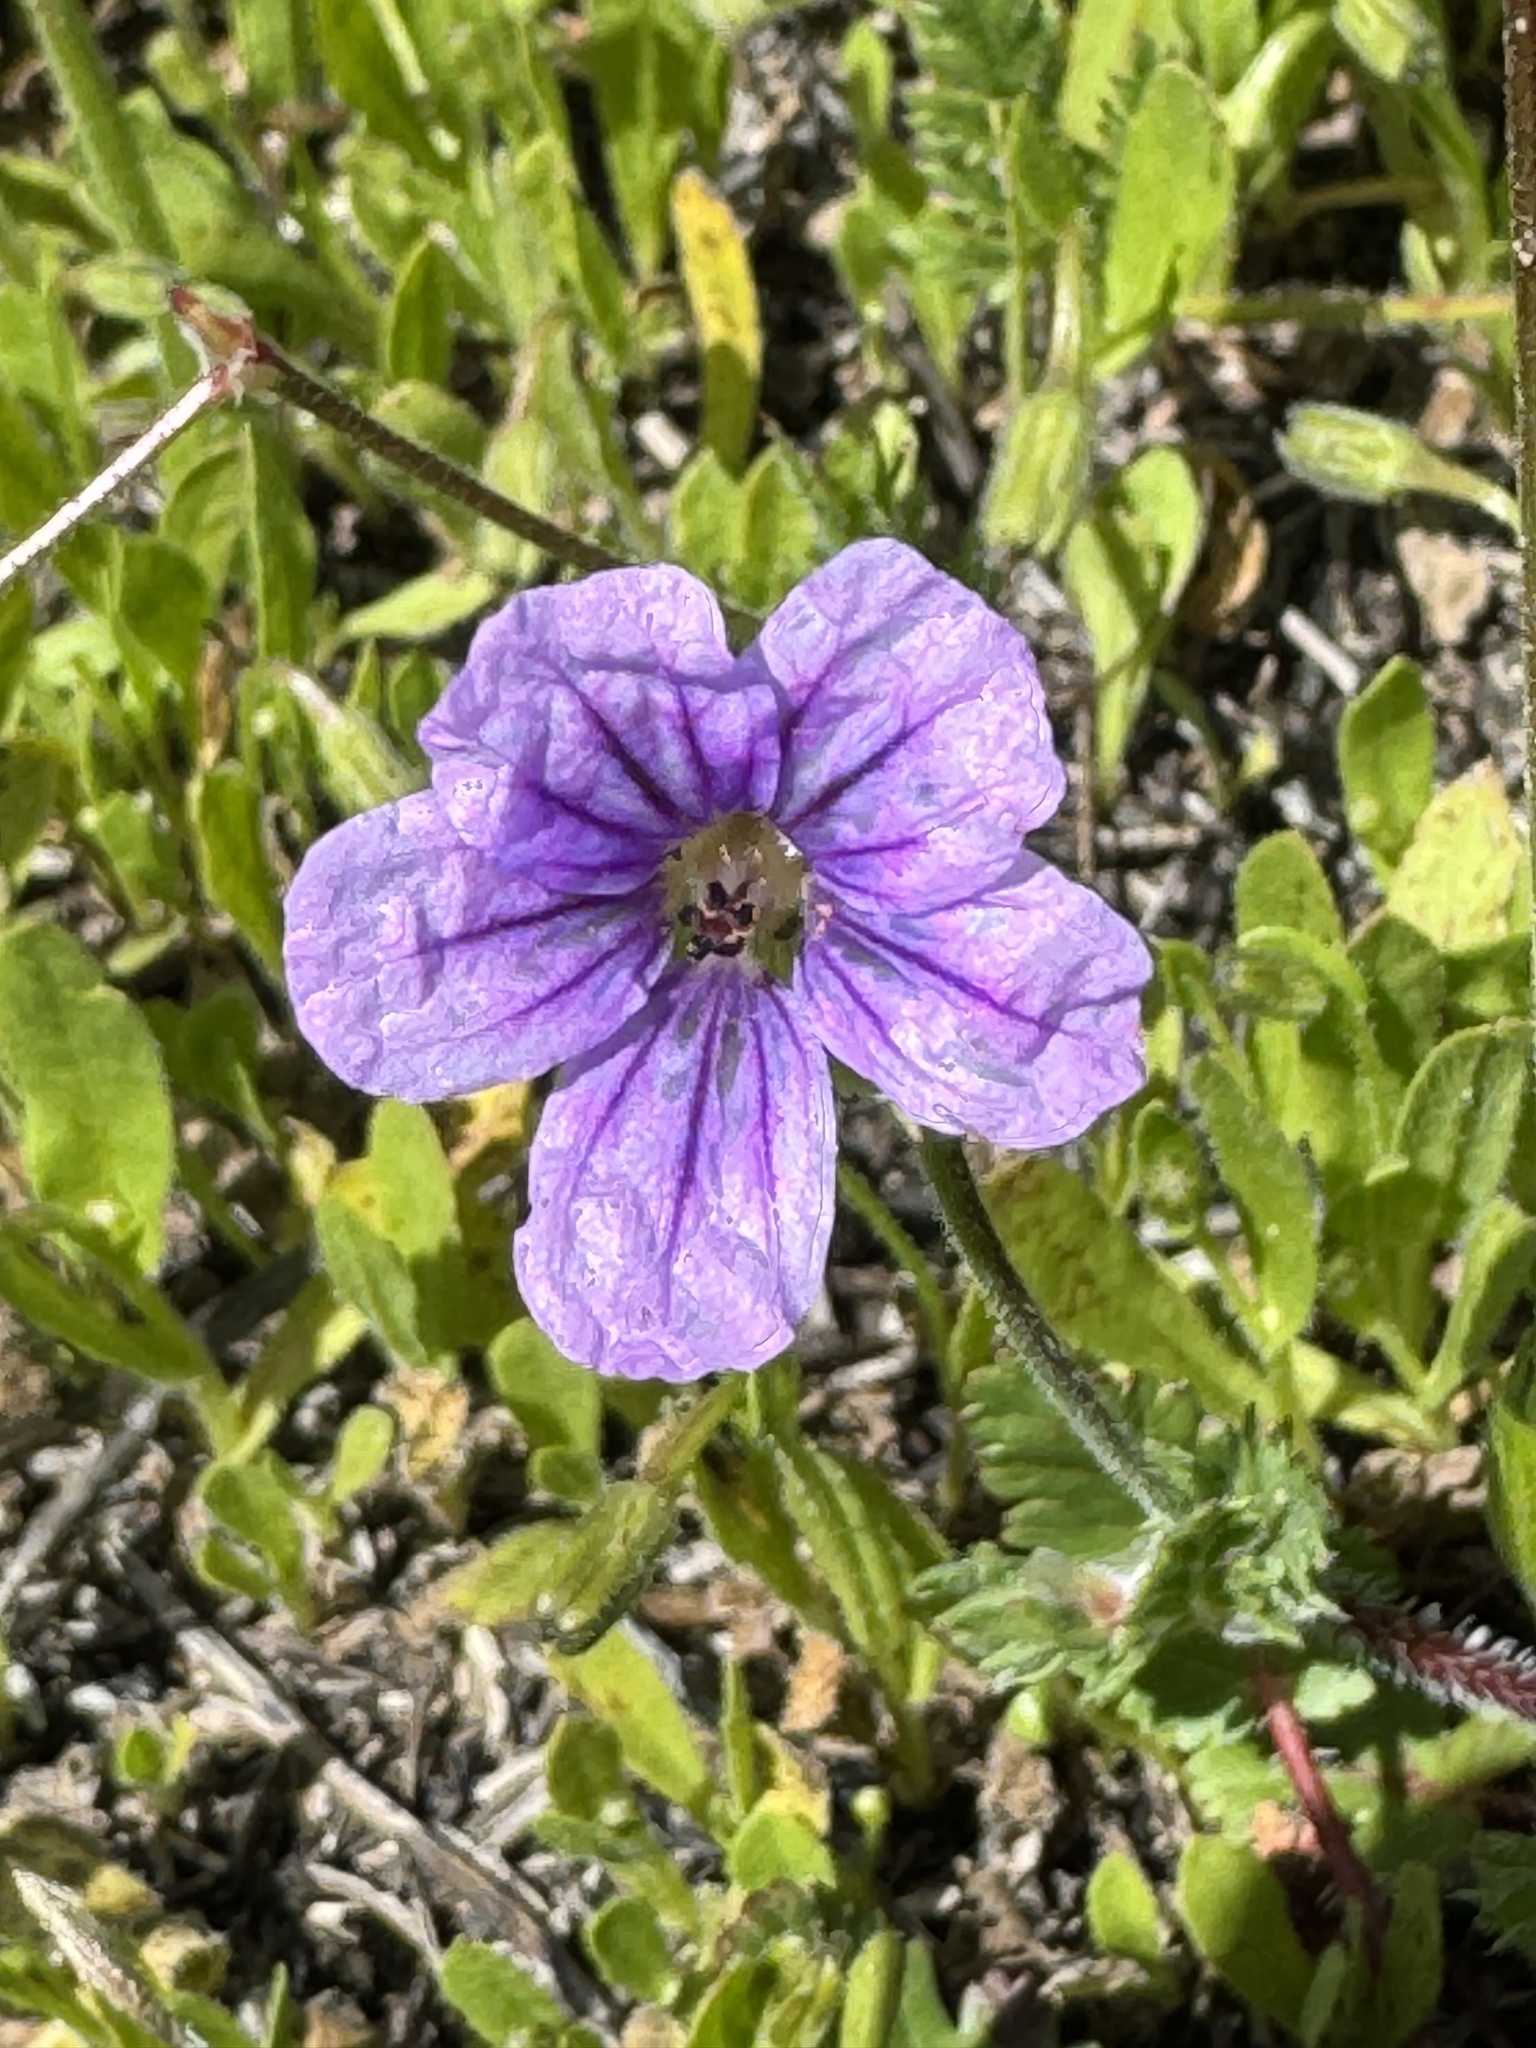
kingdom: Plantae
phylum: Tracheophyta
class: Magnoliopsida
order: Geraniales
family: Geraniaceae
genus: Erodium
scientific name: Erodium botrys
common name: Mediterranean stork's-bill
